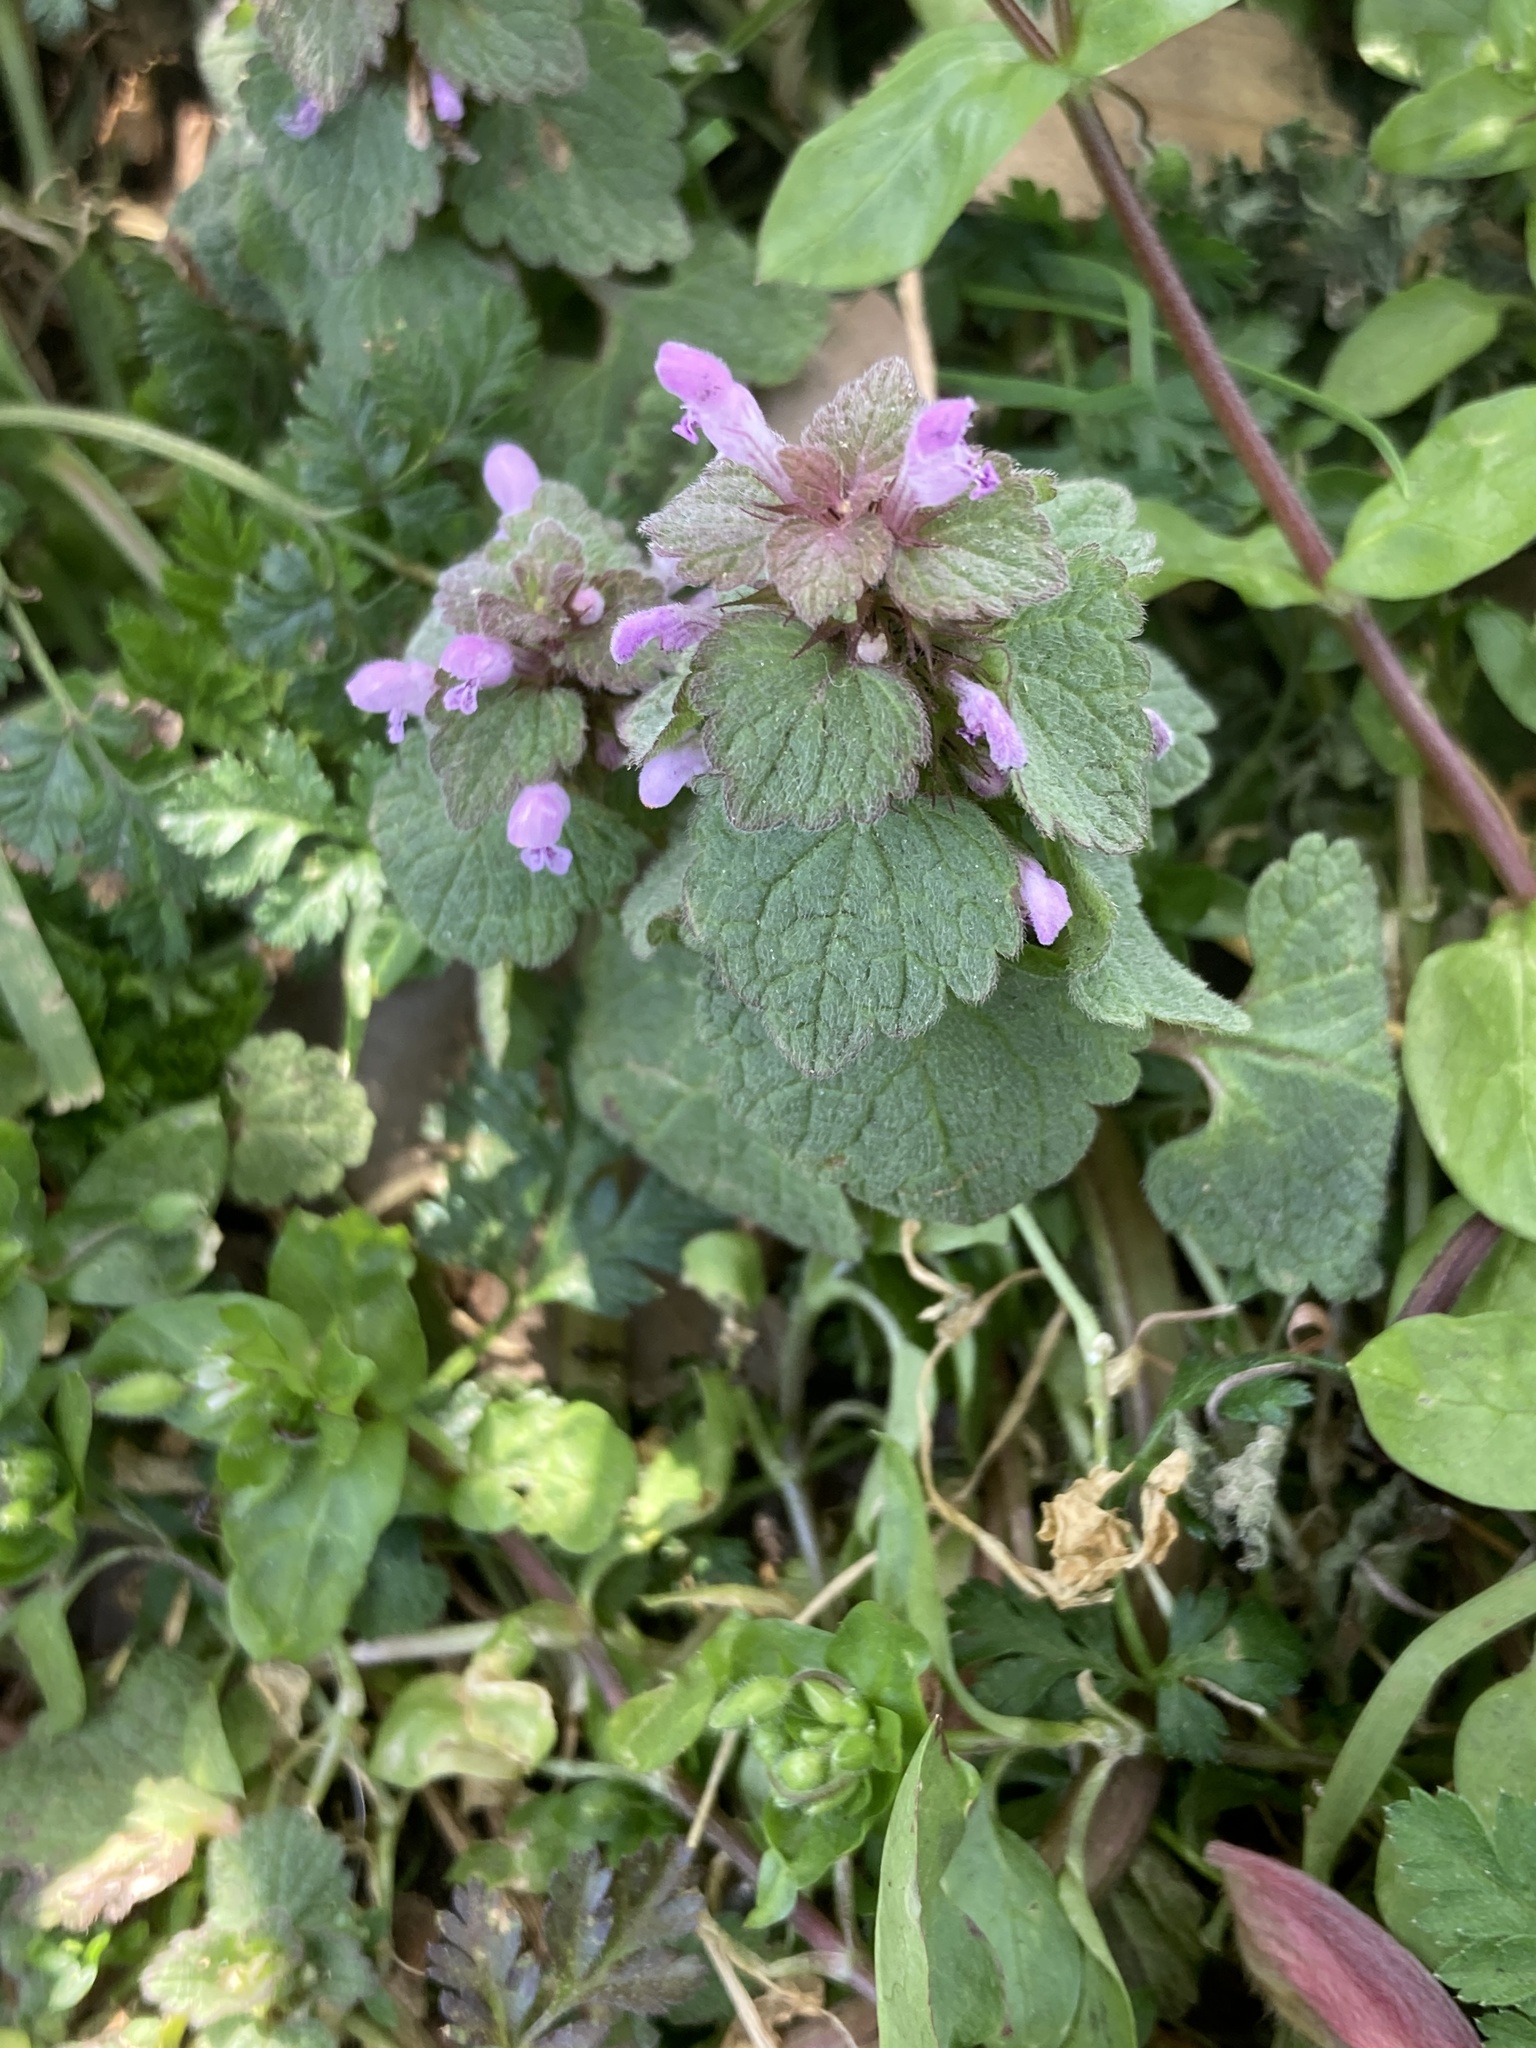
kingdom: Plantae
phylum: Tracheophyta
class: Magnoliopsida
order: Lamiales
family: Lamiaceae
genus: Lamium
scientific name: Lamium purpureum
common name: Red dead-nettle
